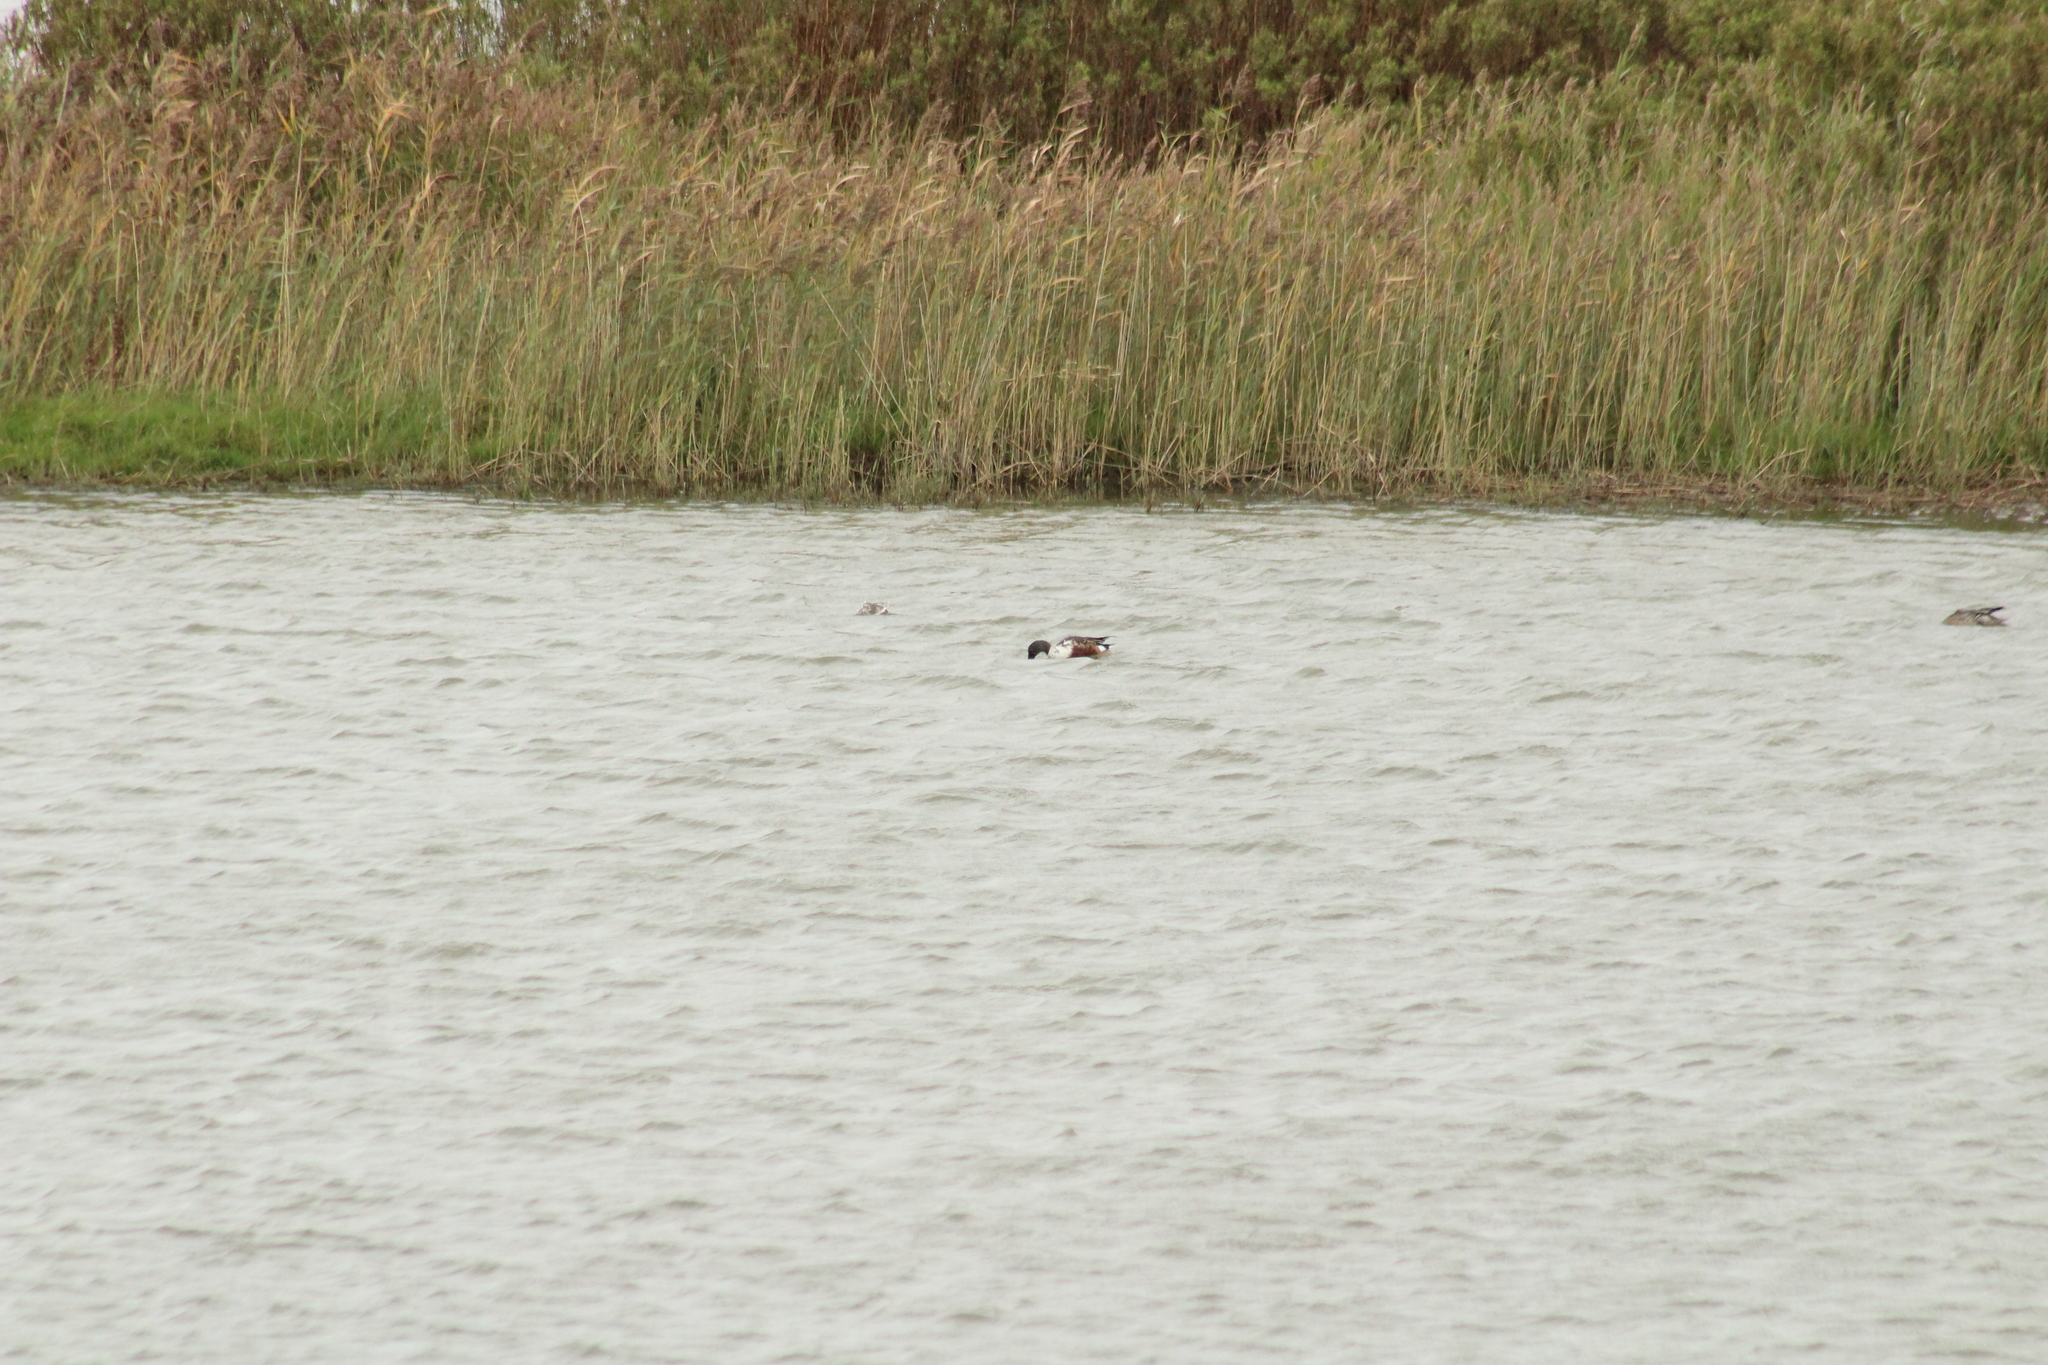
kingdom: Animalia
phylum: Chordata
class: Aves
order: Anseriformes
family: Anatidae
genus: Spatula
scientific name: Spatula clypeata
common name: Northern shoveler
